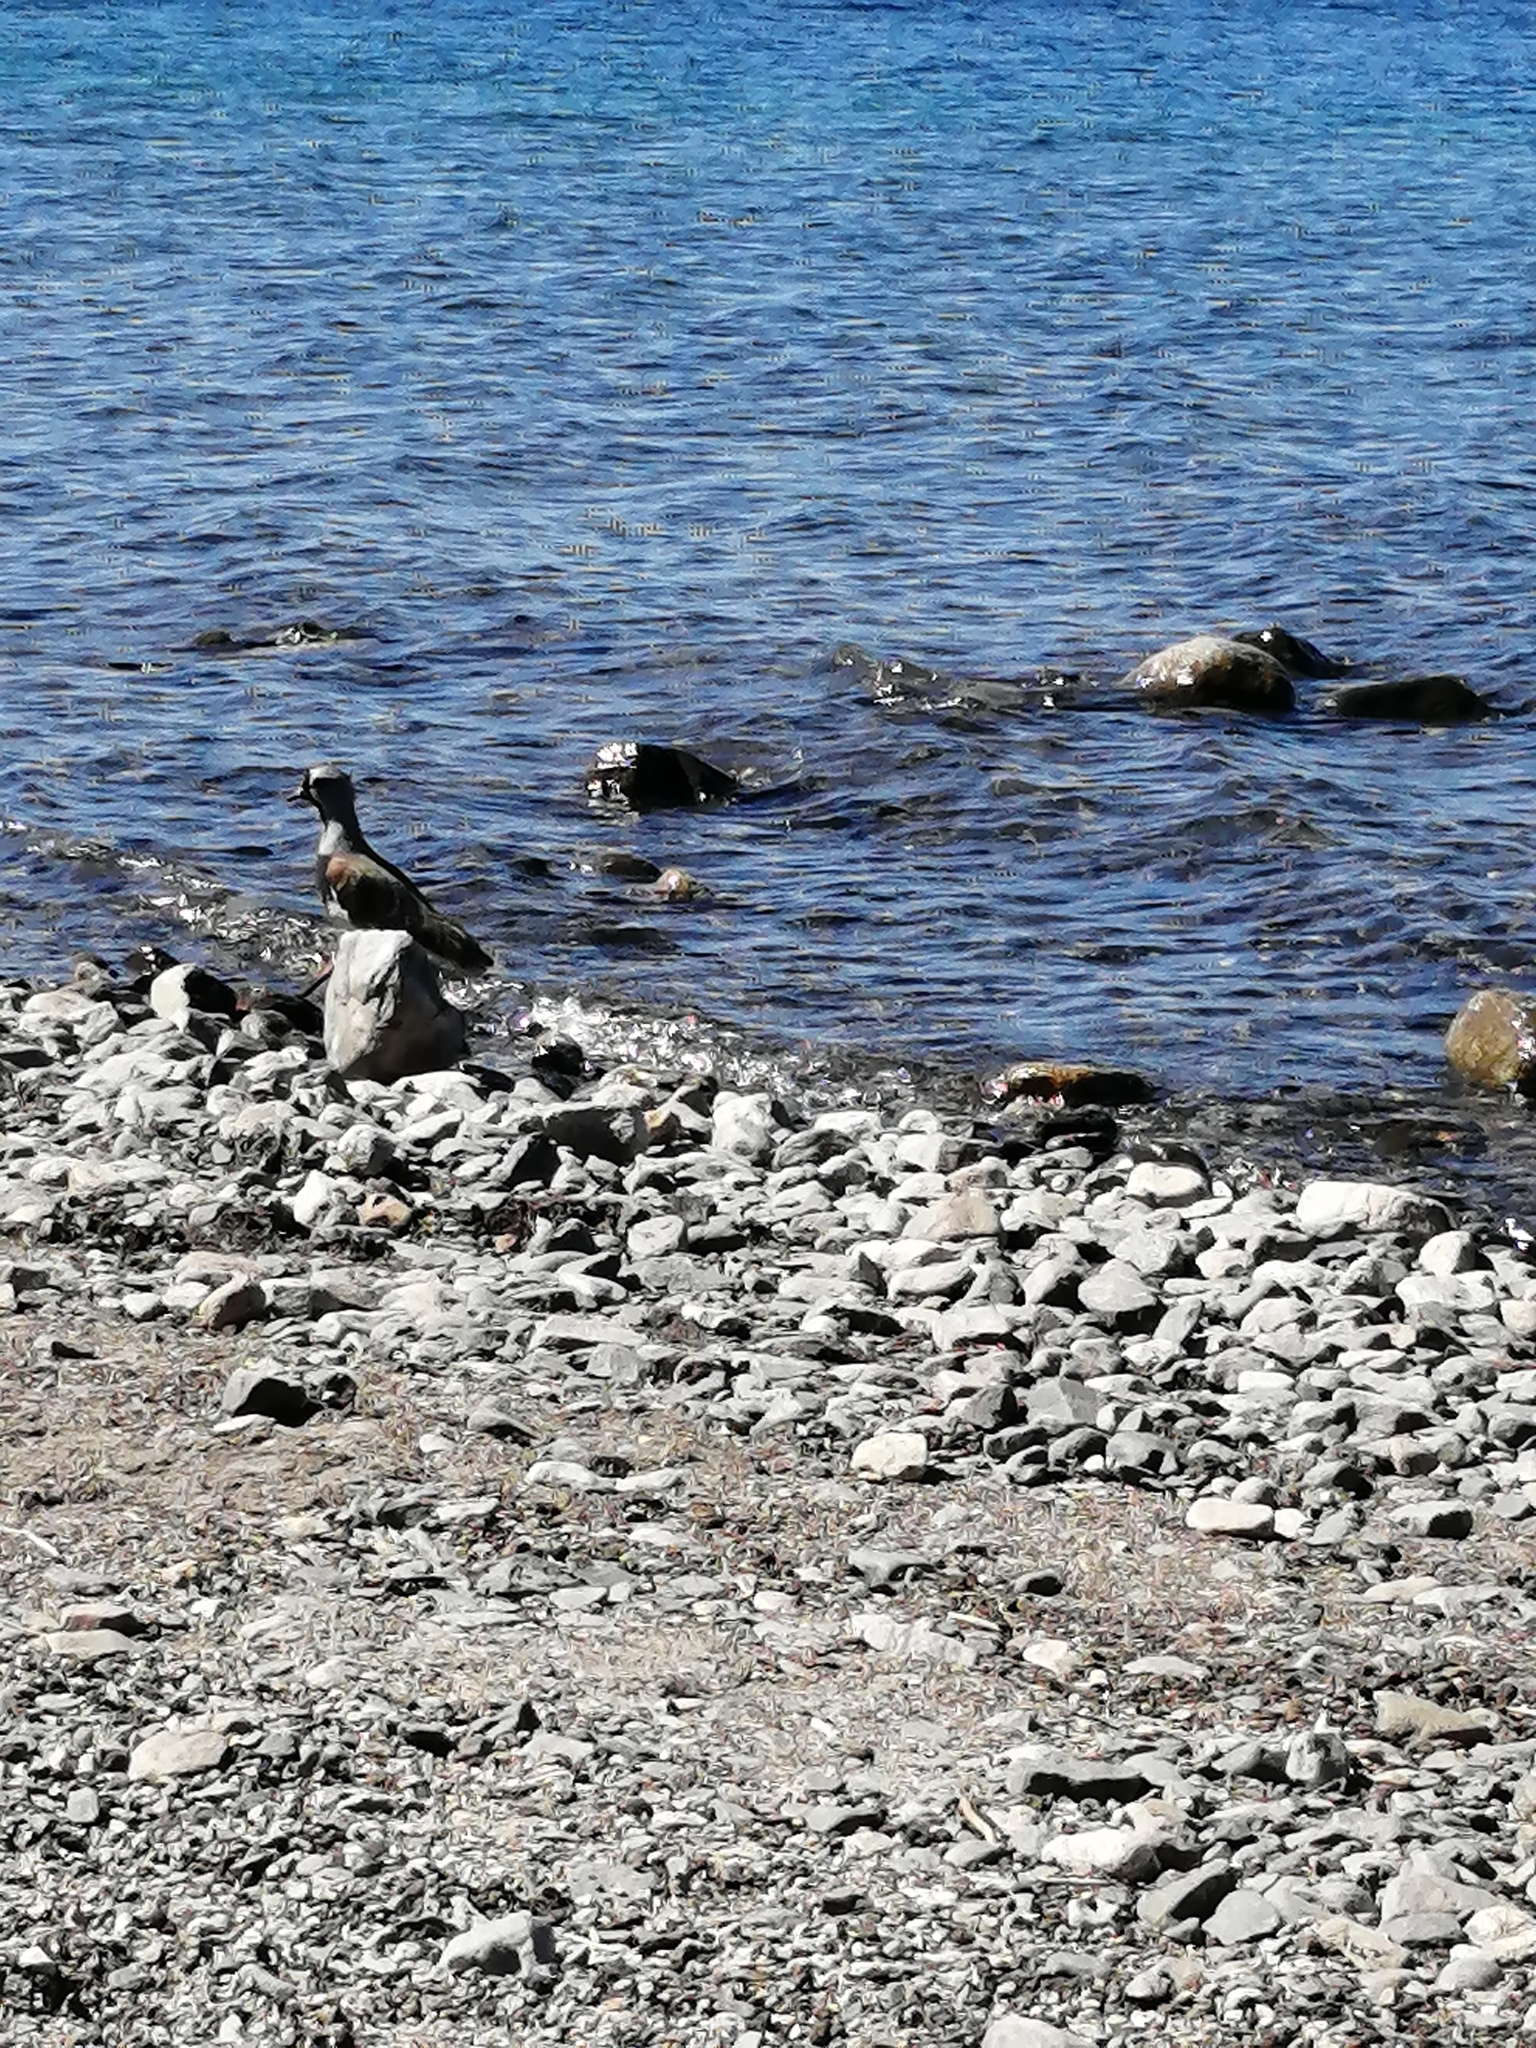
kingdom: Animalia
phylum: Chordata
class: Aves
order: Charadriiformes
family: Charadriidae
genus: Vanellus
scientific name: Vanellus chilensis
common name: Southern lapwing
